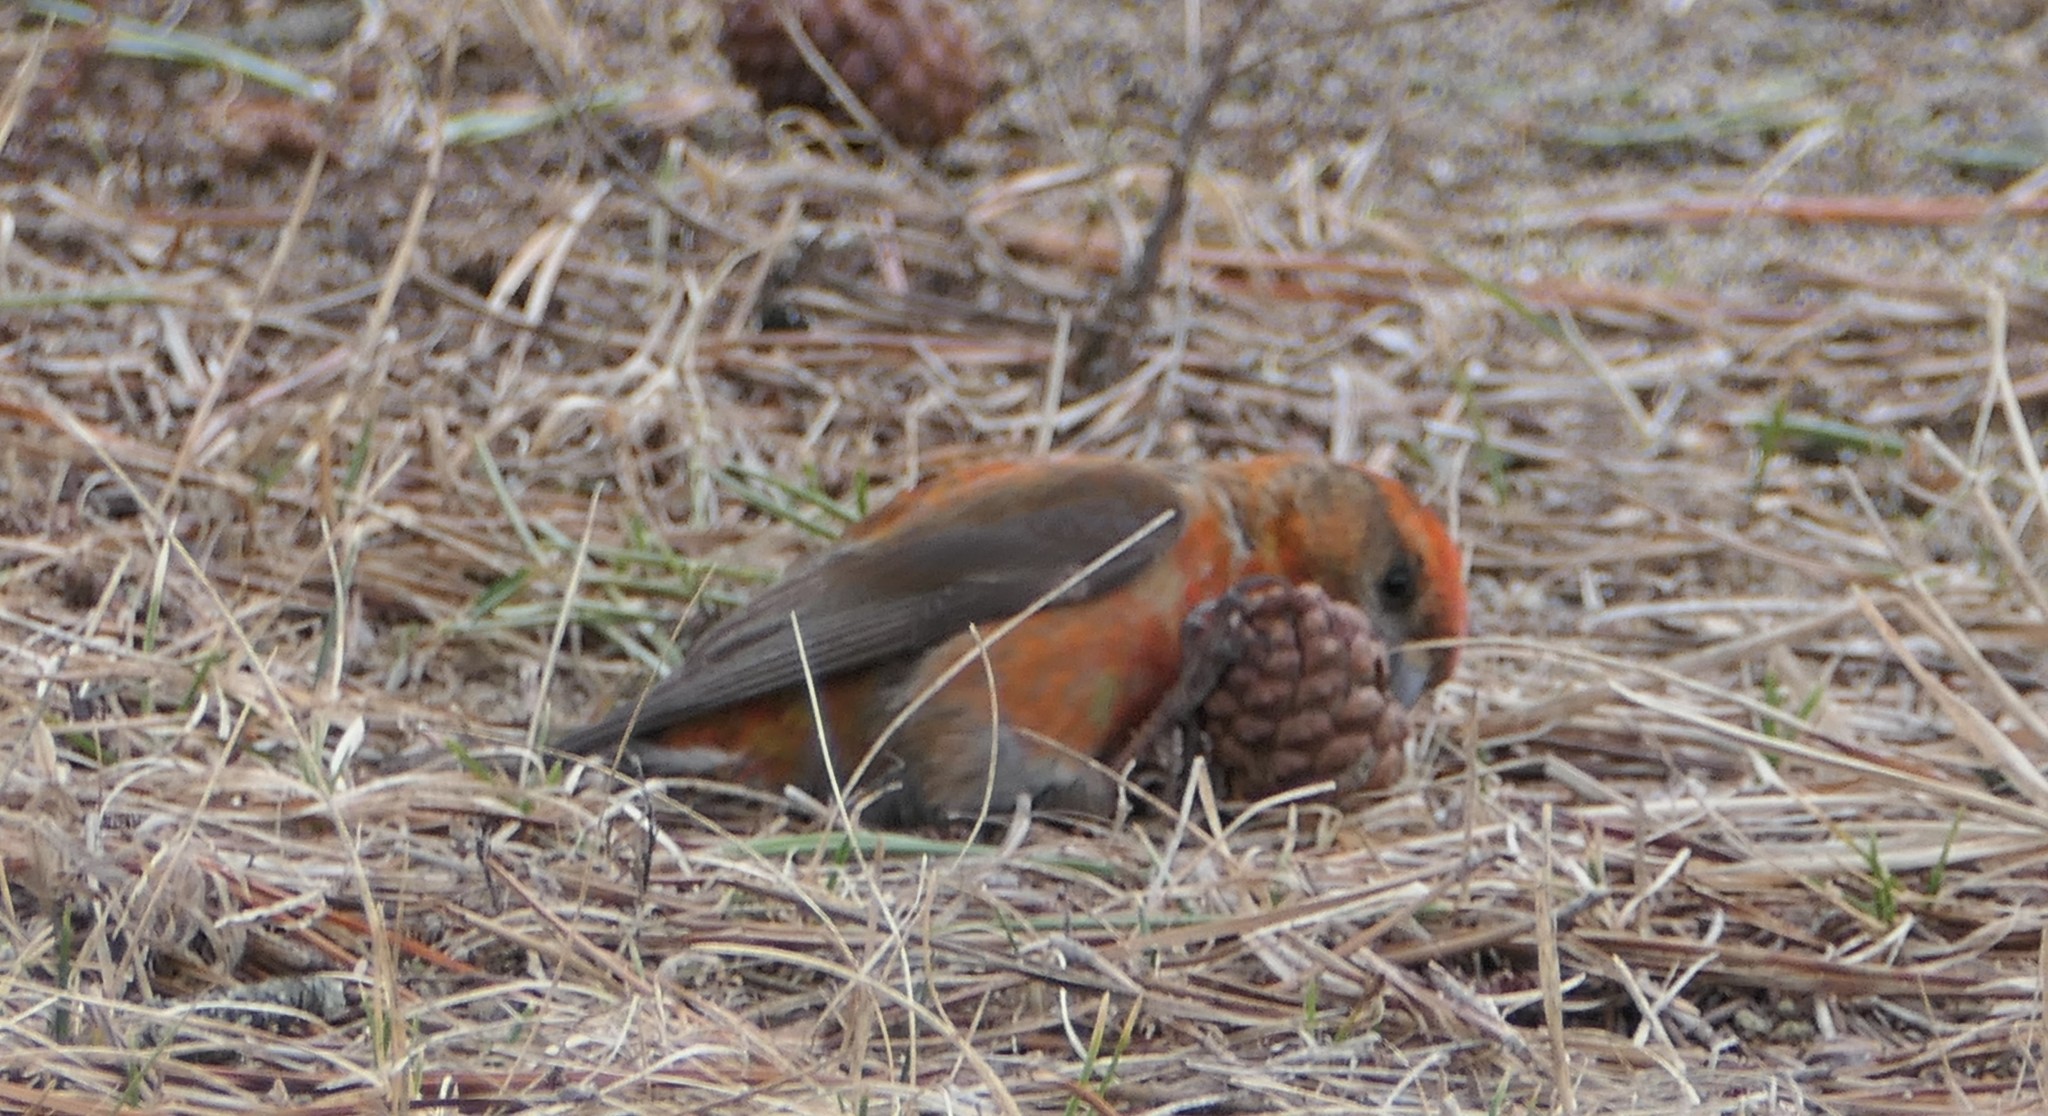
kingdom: Animalia
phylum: Chordata
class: Aves
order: Passeriformes
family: Fringillidae
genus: Loxia
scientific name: Loxia curvirostra
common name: Red crossbill
